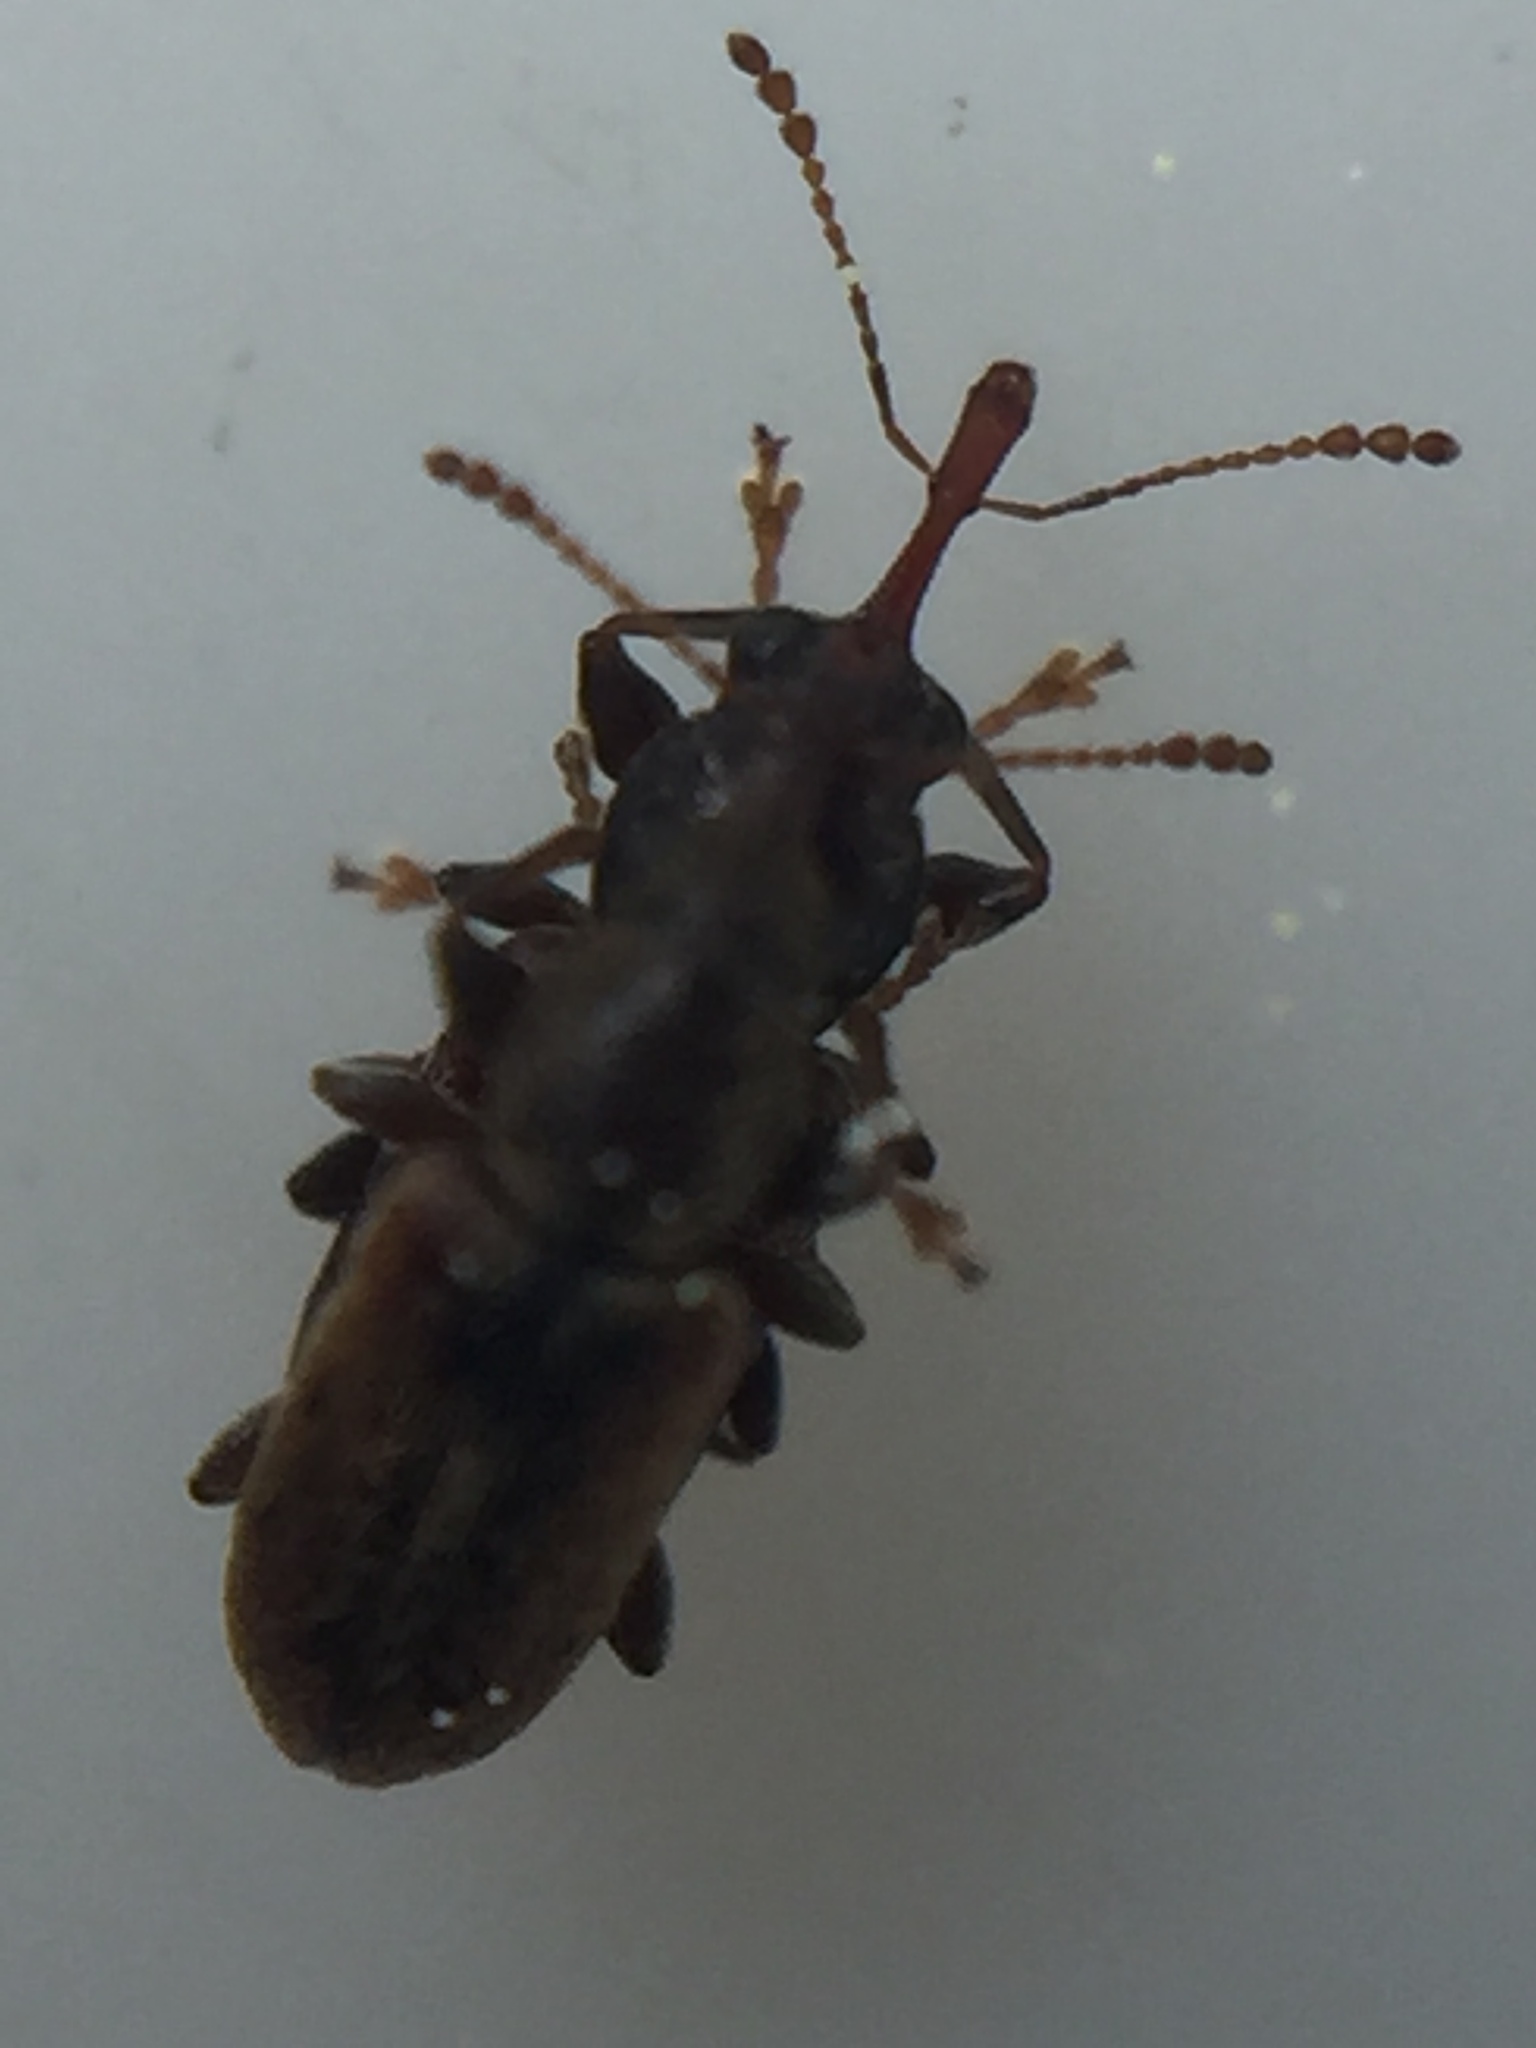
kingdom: Animalia
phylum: Arthropoda
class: Insecta
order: Coleoptera
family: Nemonychidae
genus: Rhinorhynchus
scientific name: Rhinorhynchus rufulus
